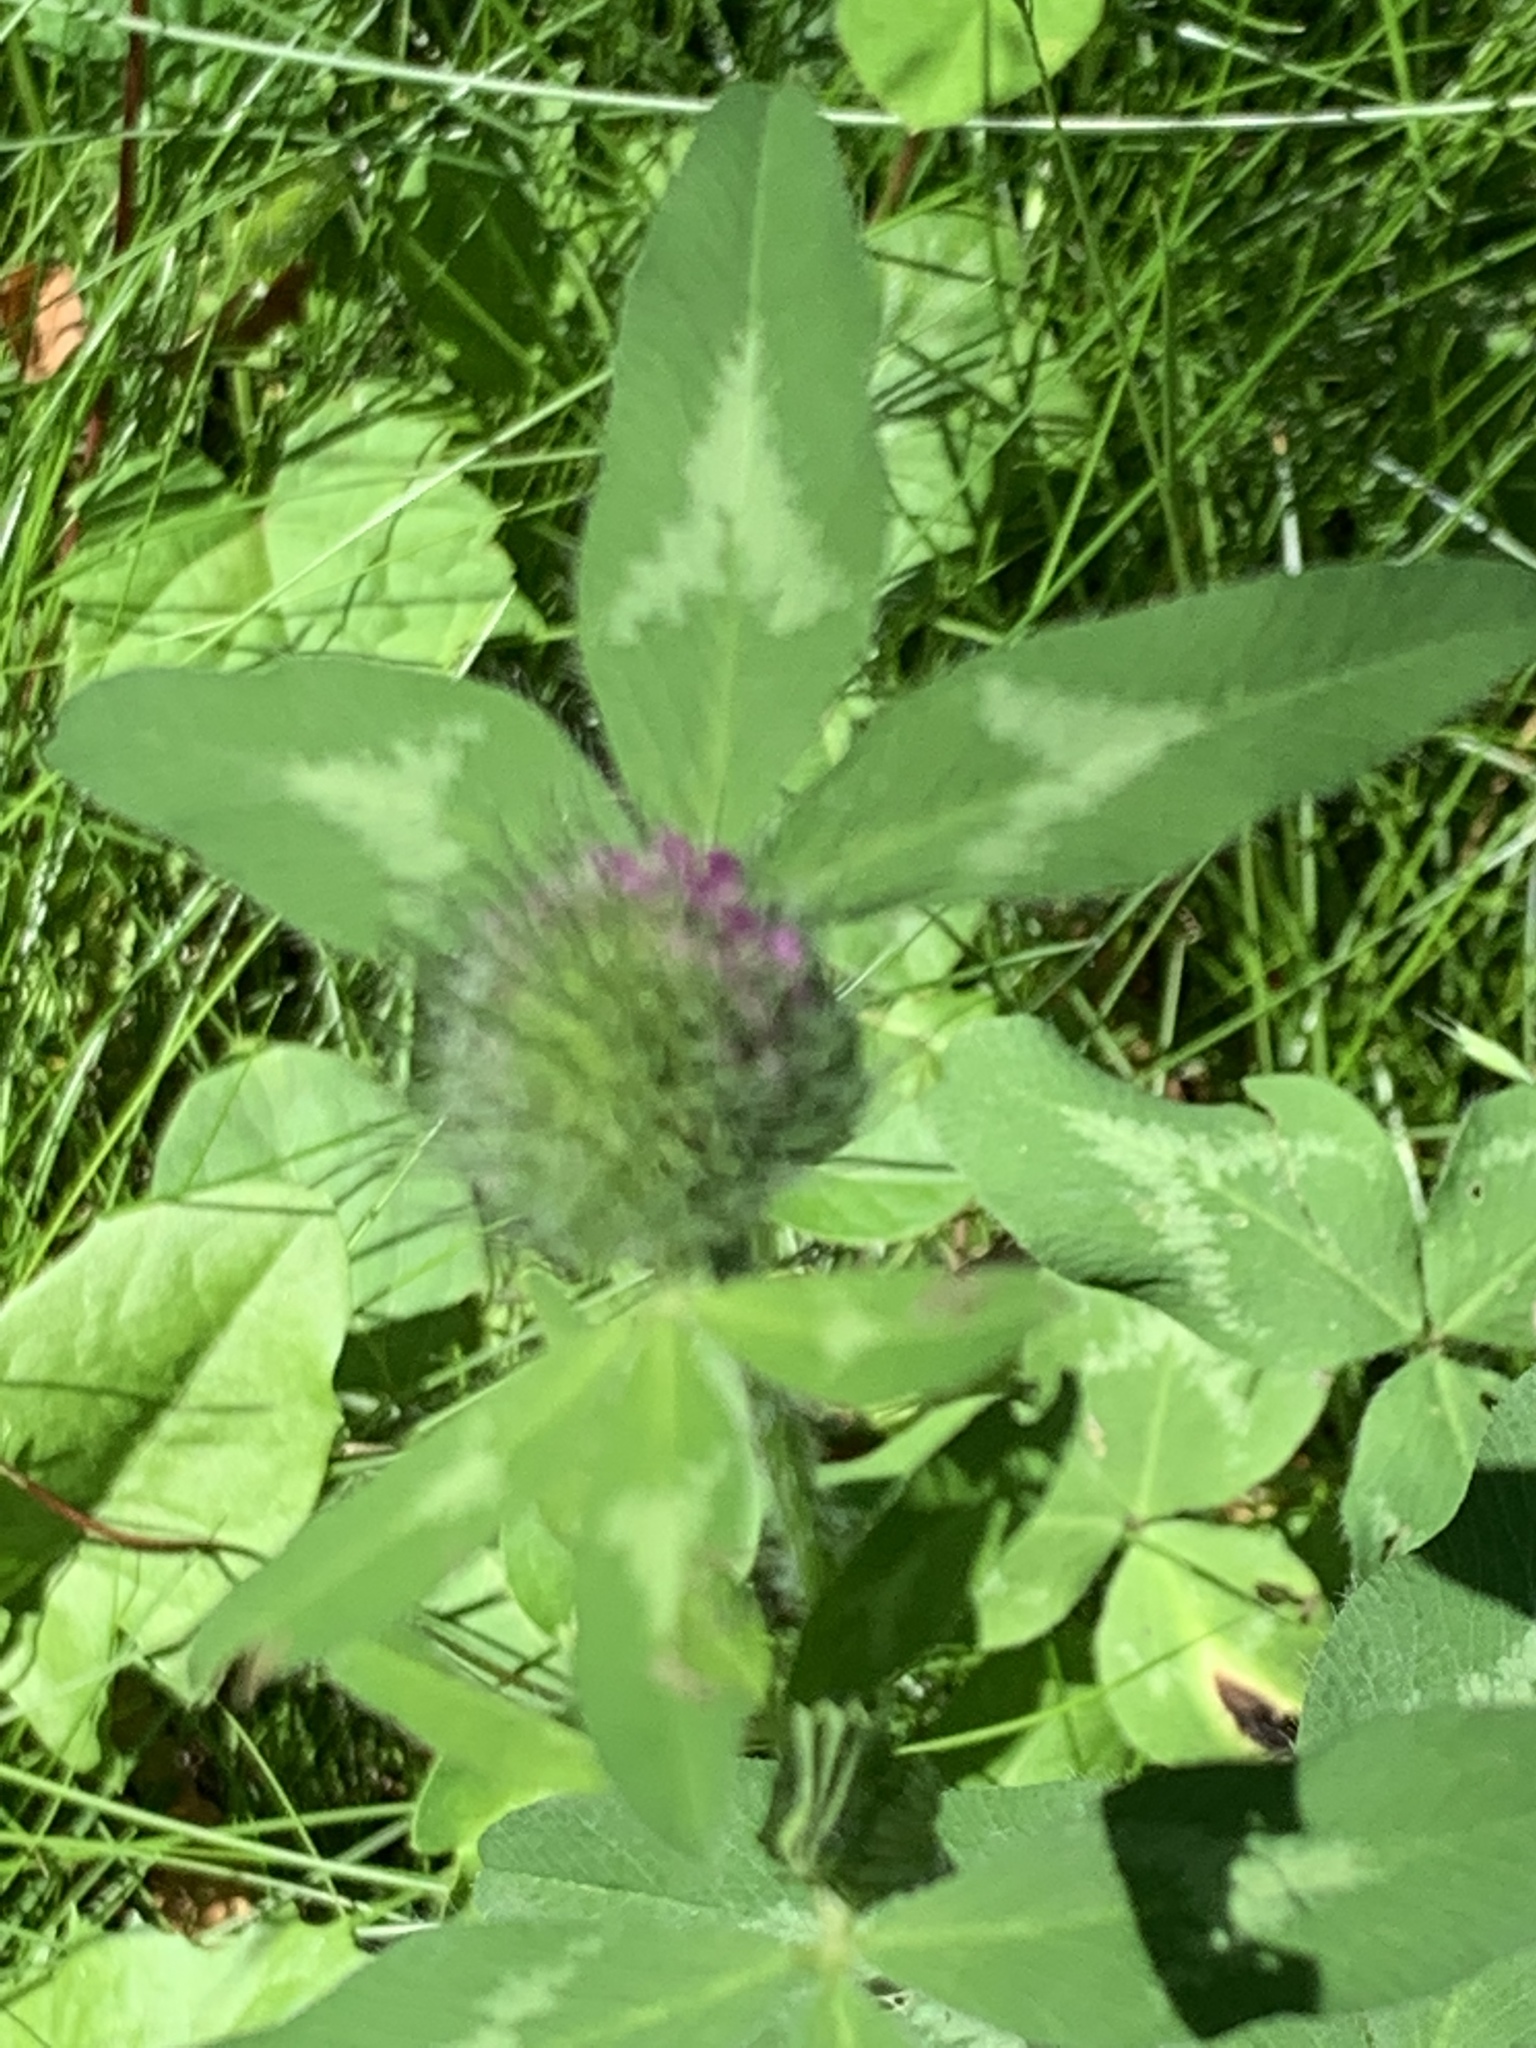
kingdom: Plantae
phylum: Tracheophyta
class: Magnoliopsida
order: Fabales
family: Fabaceae
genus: Trifolium
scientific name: Trifolium pratense
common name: Red clover
